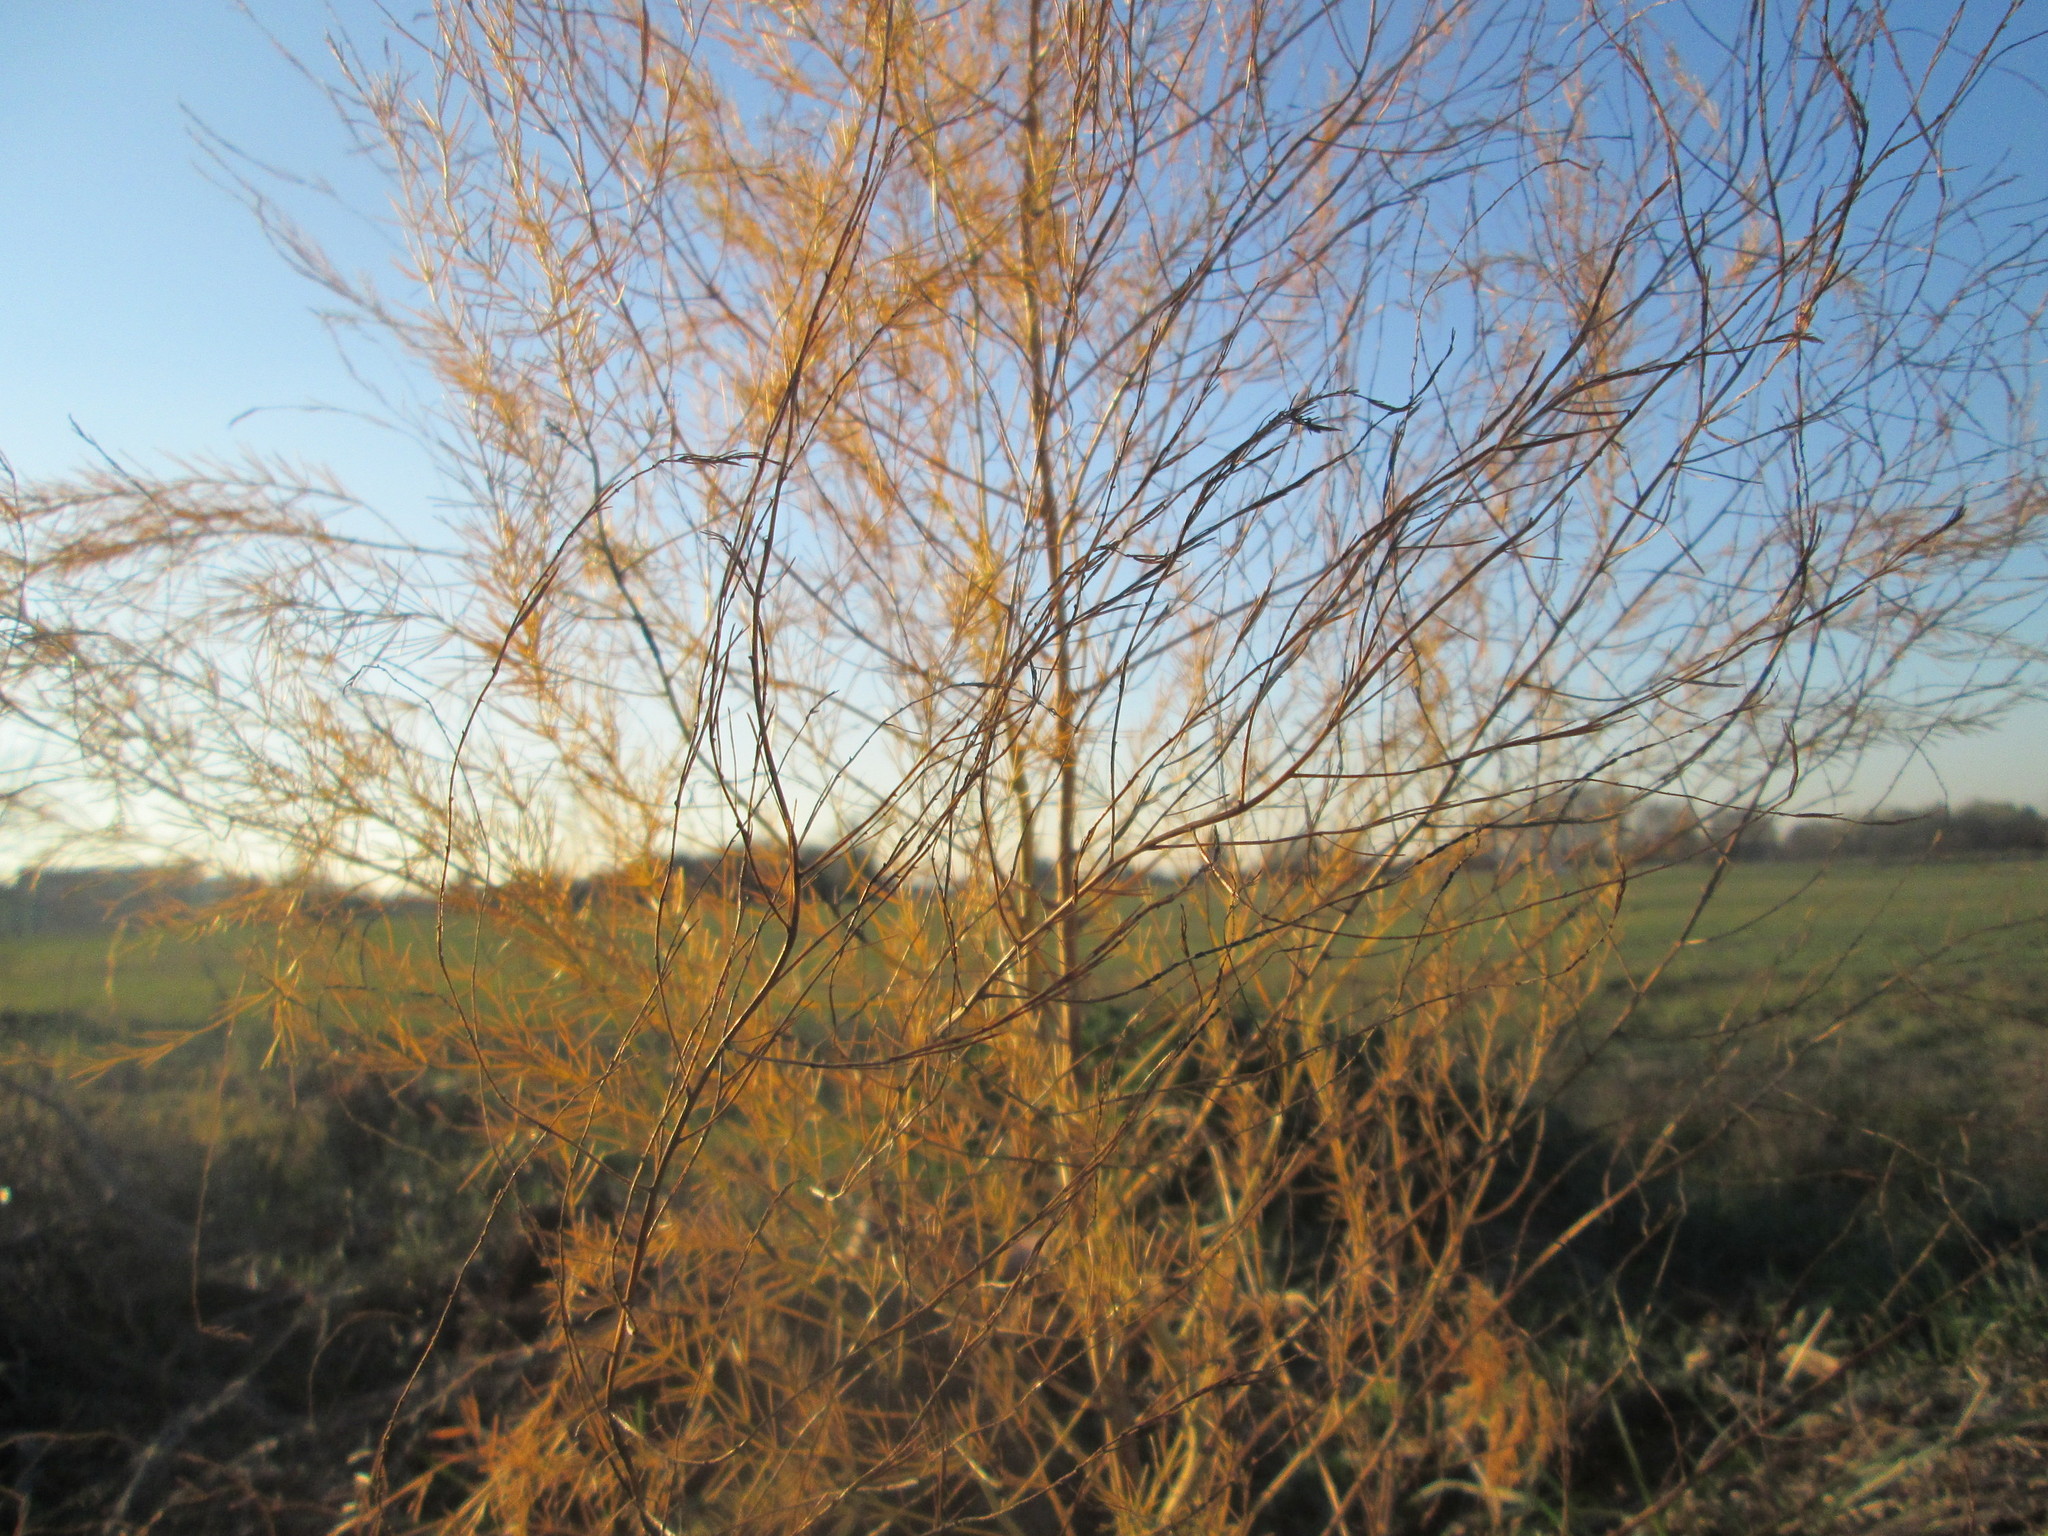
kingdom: Plantae
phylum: Tracheophyta
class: Liliopsida
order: Asparagales
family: Asparagaceae
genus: Asparagus
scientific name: Asparagus officinalis
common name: Garden asparagus
